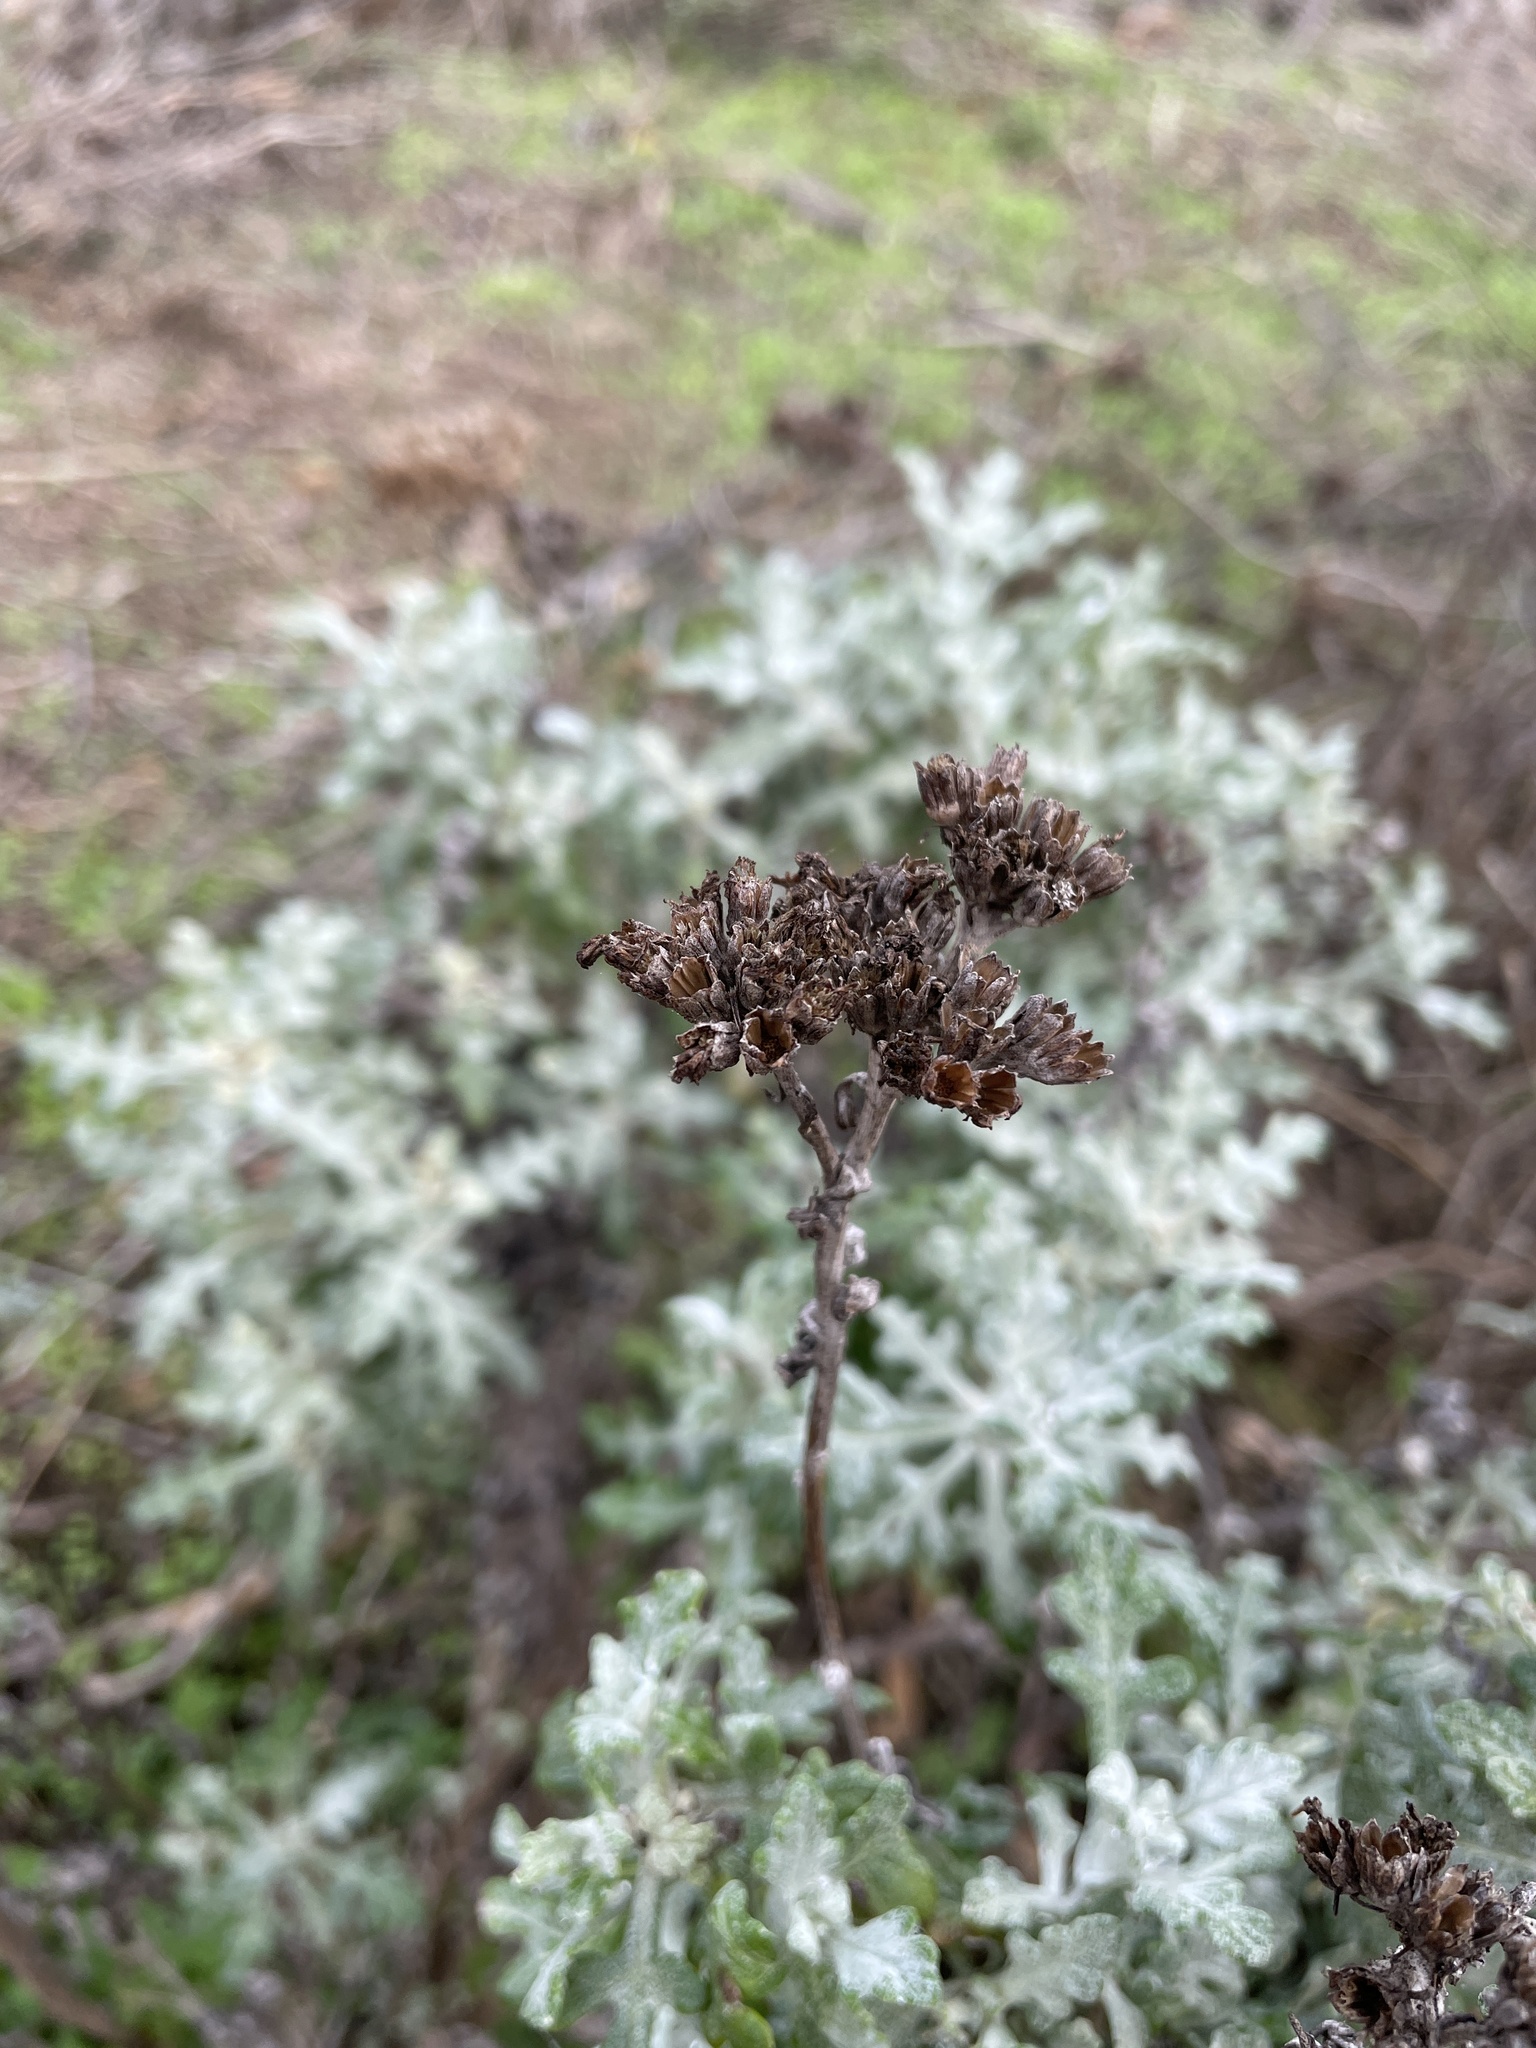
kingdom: Plantae
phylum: Tracheophyta
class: Magnoliopsida
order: Asterales
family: Asteraceae
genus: Eriophyllum
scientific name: Eriophyllum staechadifolium
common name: Lizardtail
